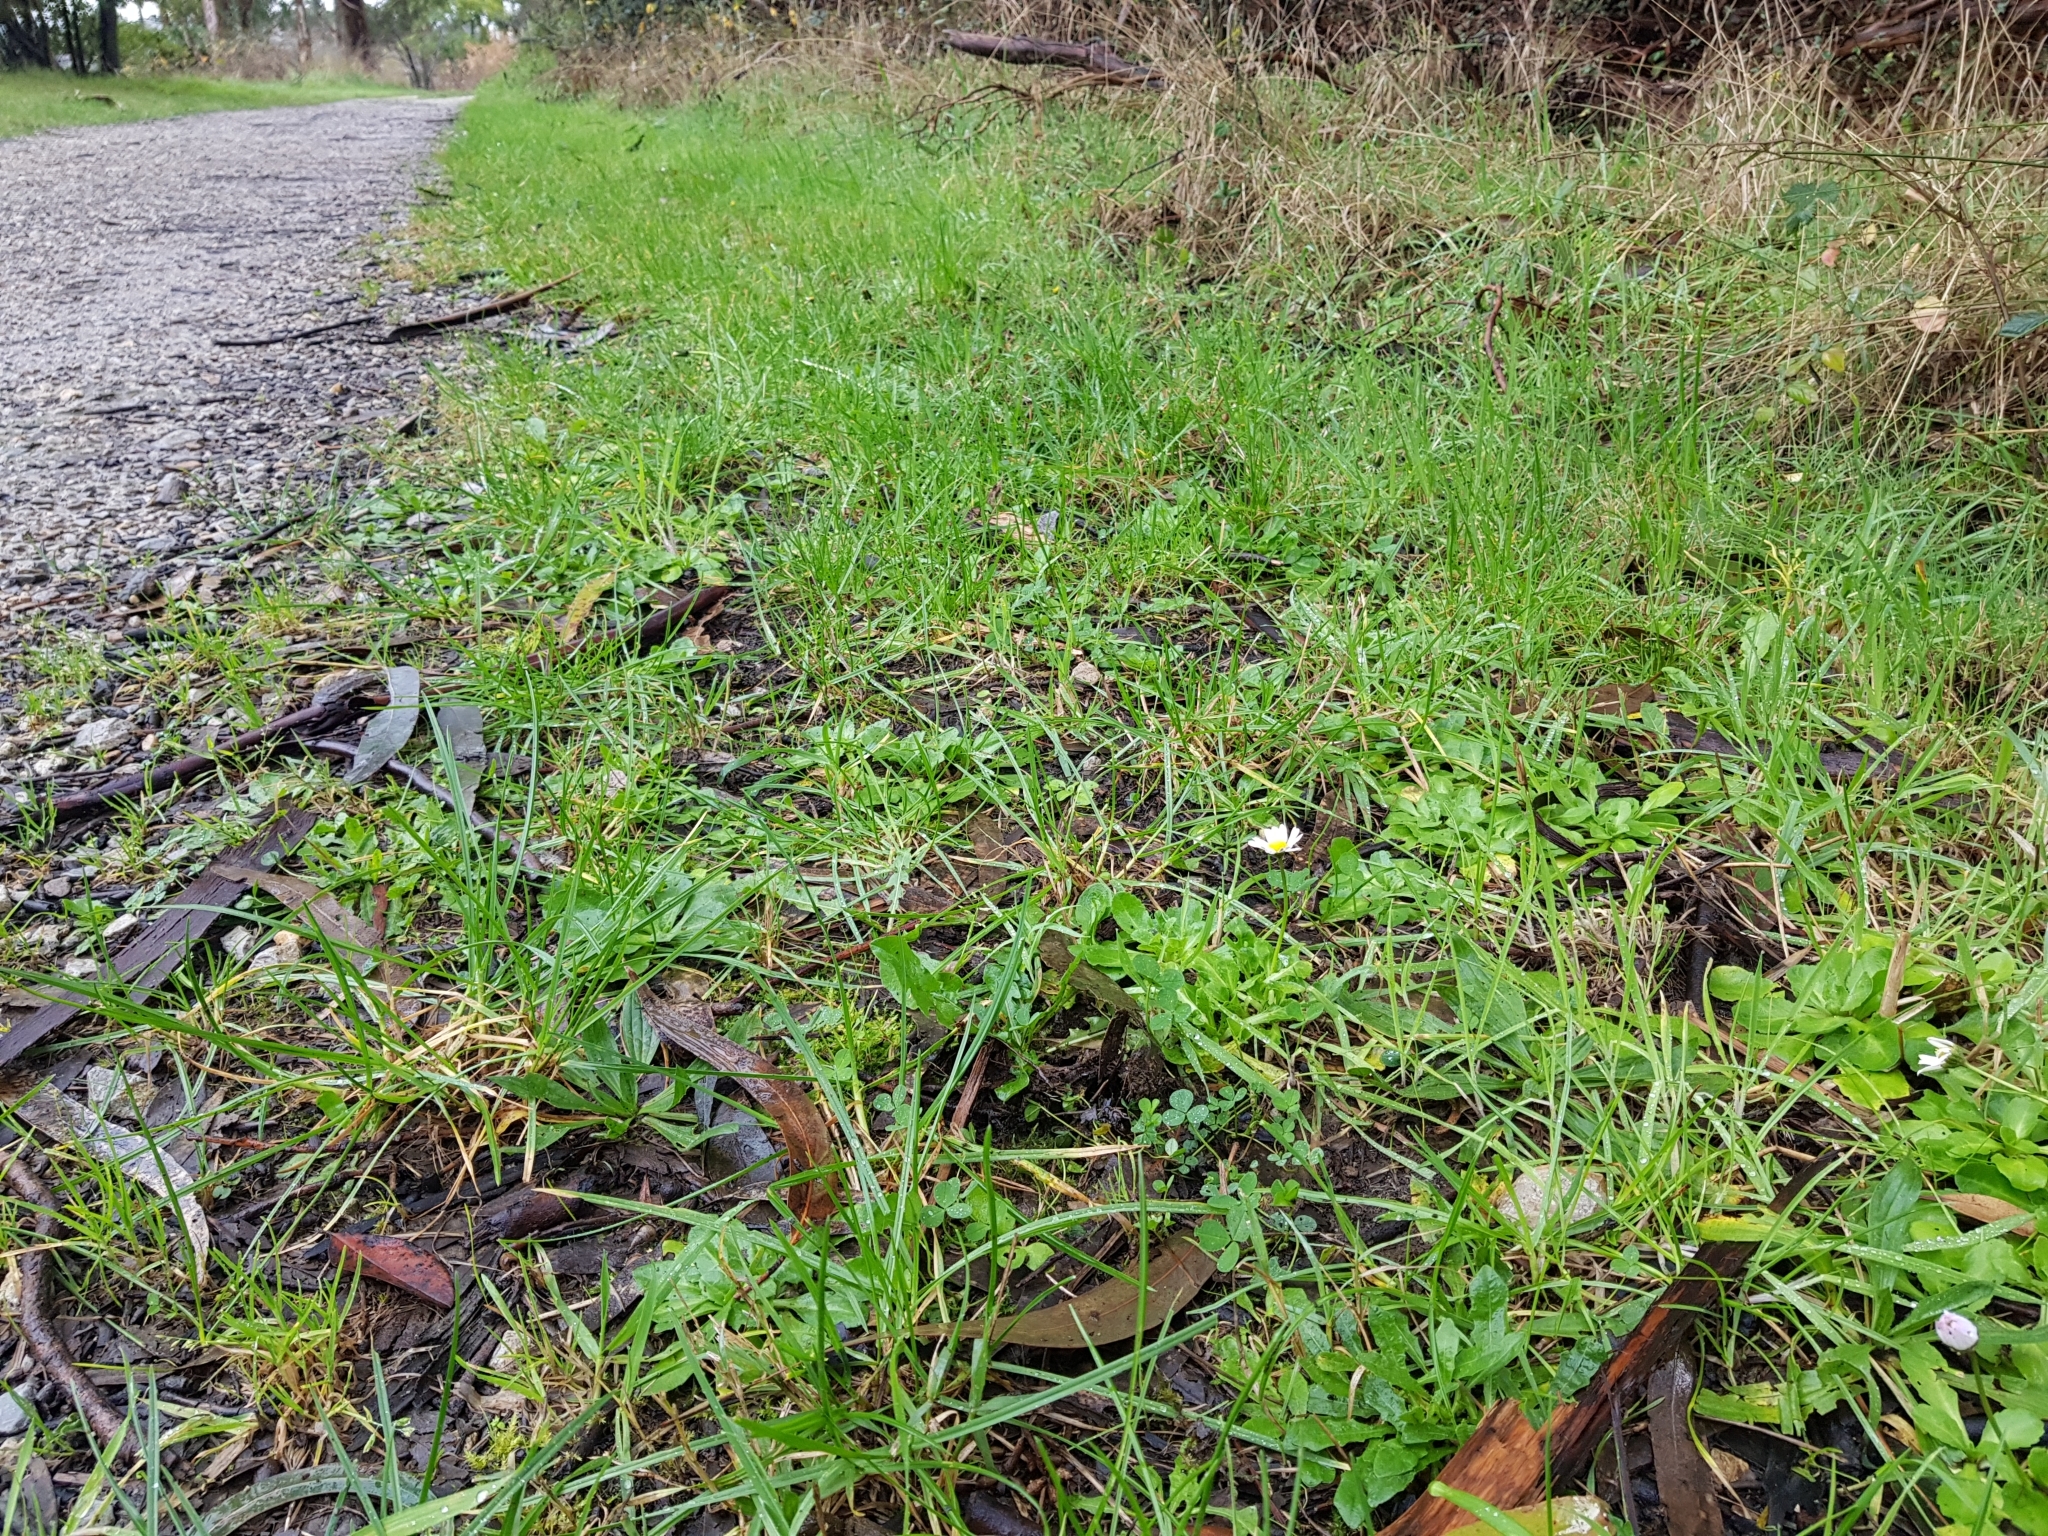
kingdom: Plantae
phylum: Tracheophyta
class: Magnoliopsida
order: Asterales
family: Asteraceae
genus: Bellis
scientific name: Bellis perennis
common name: Lawndaisy
